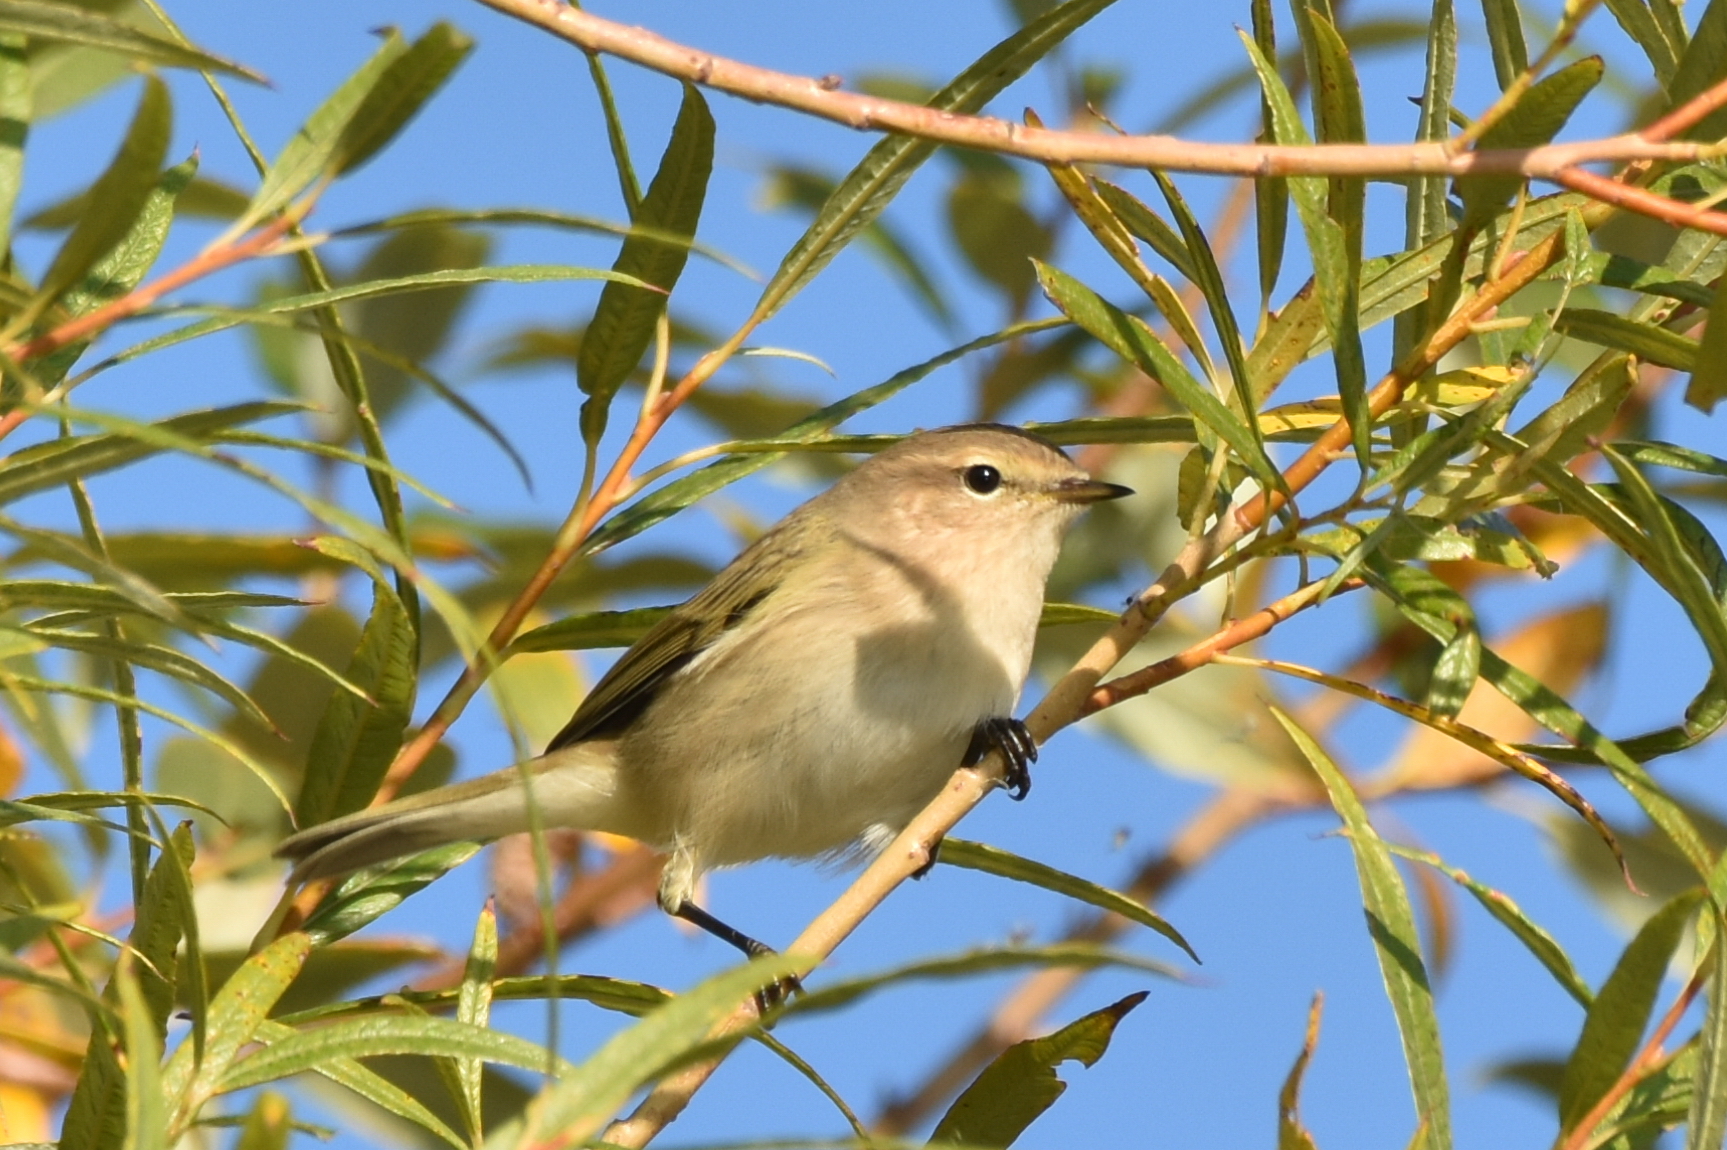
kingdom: Animalia
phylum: Chordata
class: Aves
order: Passeriformes
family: Phylloscopidae
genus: Phylloscopus
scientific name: Phylloscopus collybita
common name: Common chiffchaff
